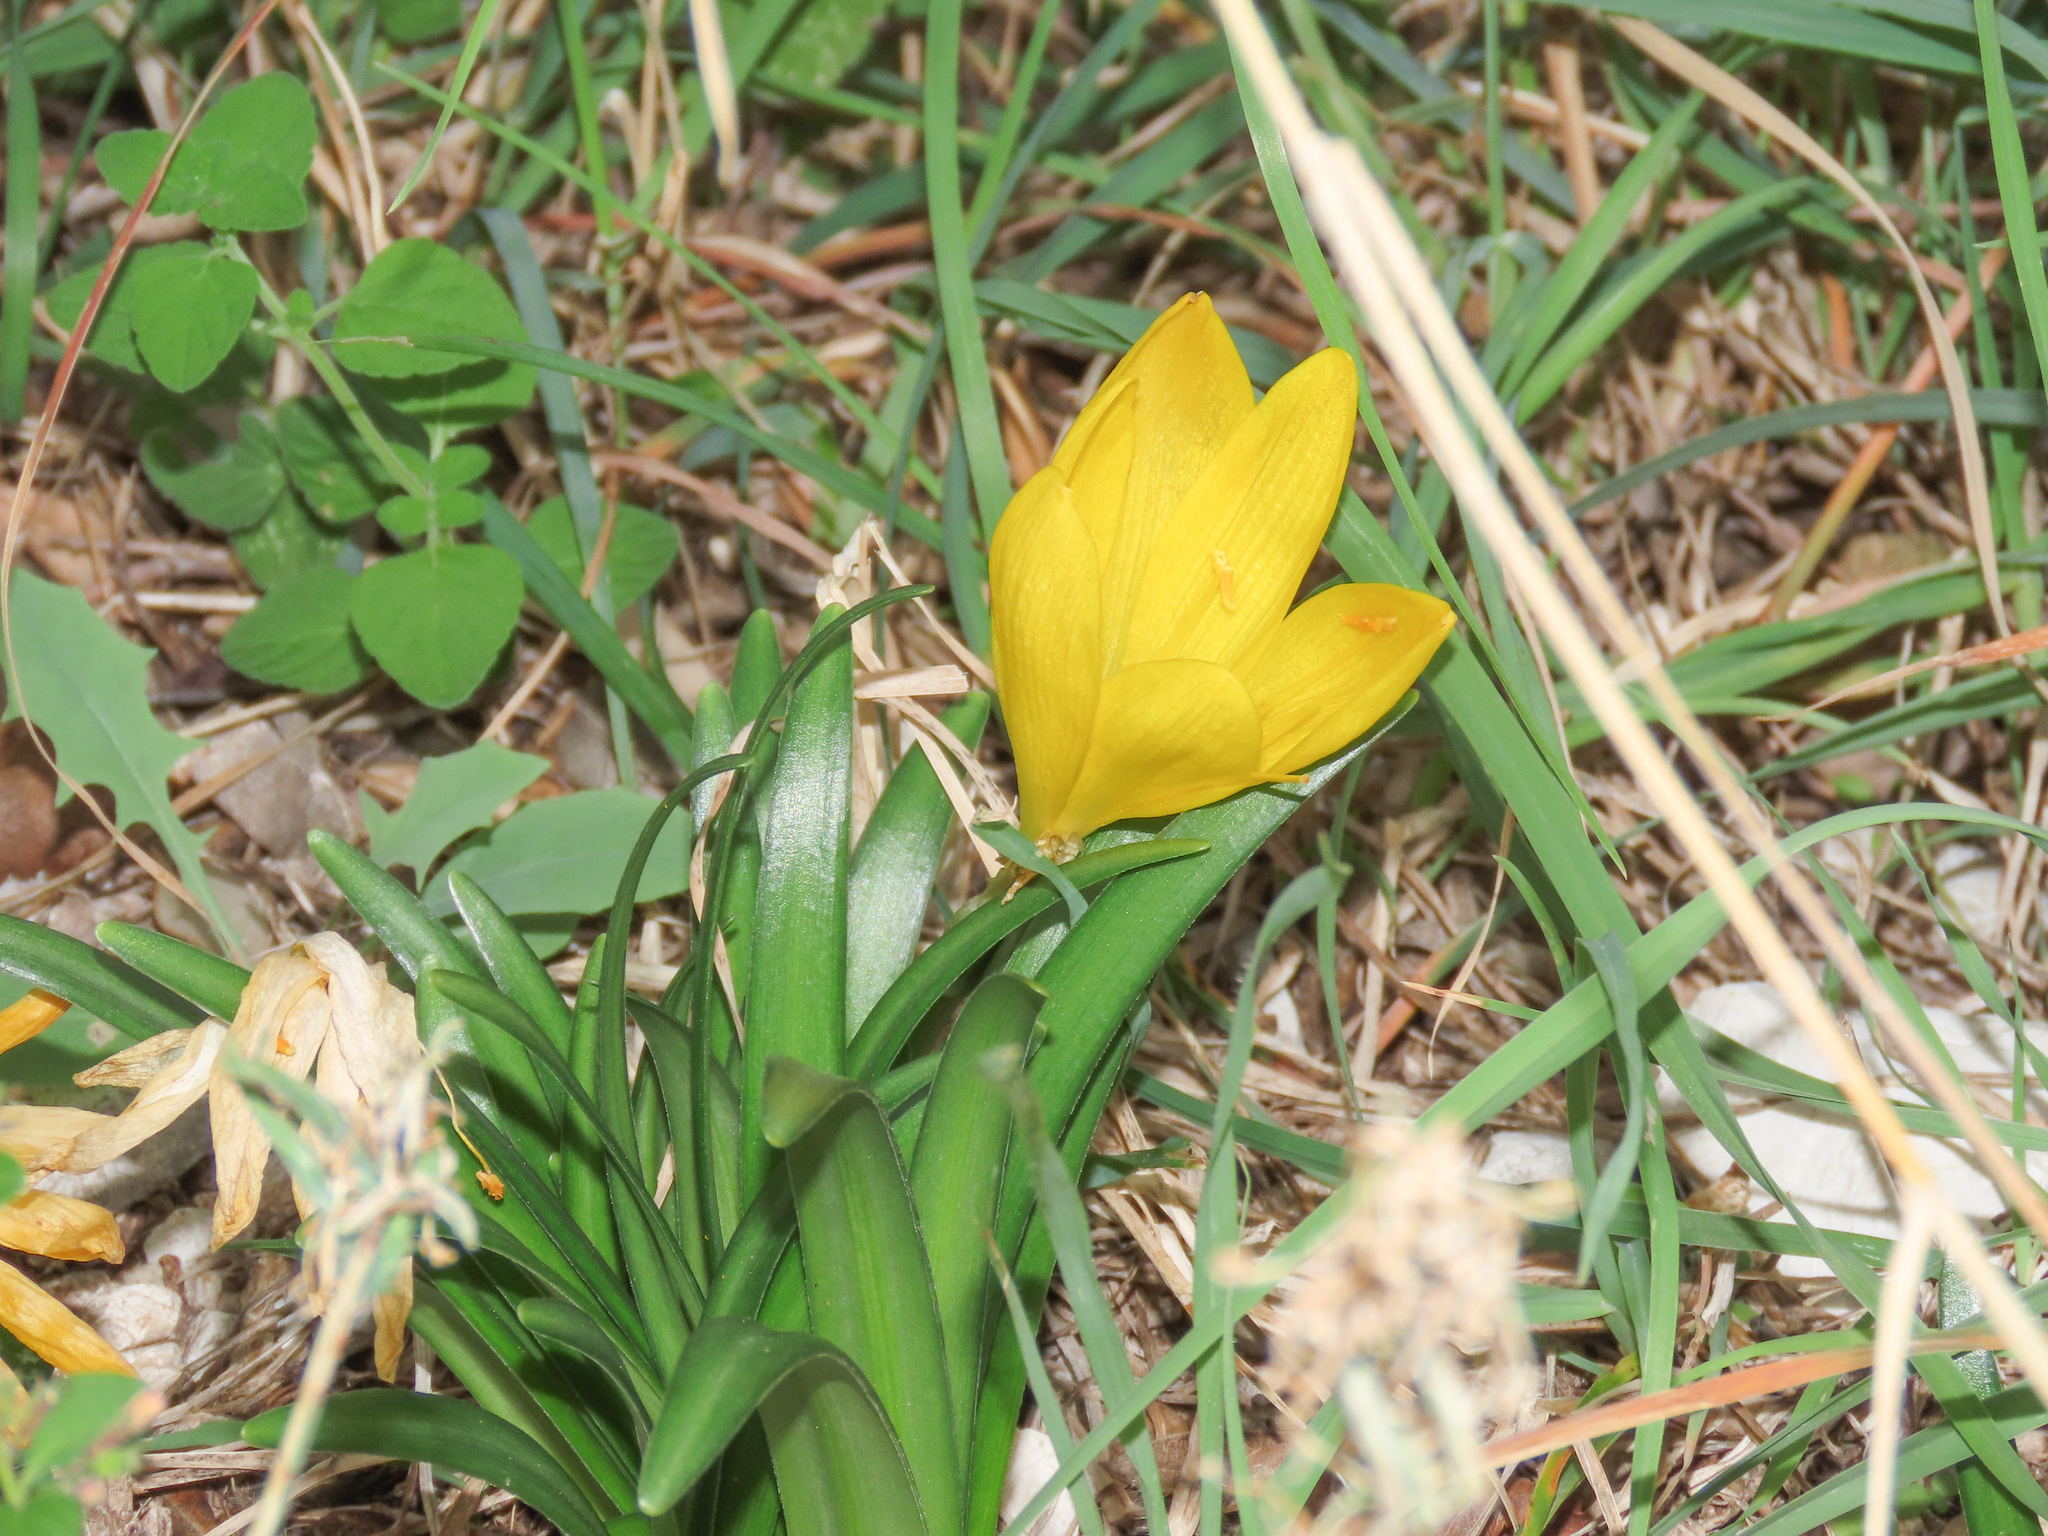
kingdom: Plantae
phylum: Tracheophyta
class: Liliopsida
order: Asparagales
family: Amaryllidaceae
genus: Sternbergia
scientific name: Sternbergia lutea
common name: Winter daffodil
